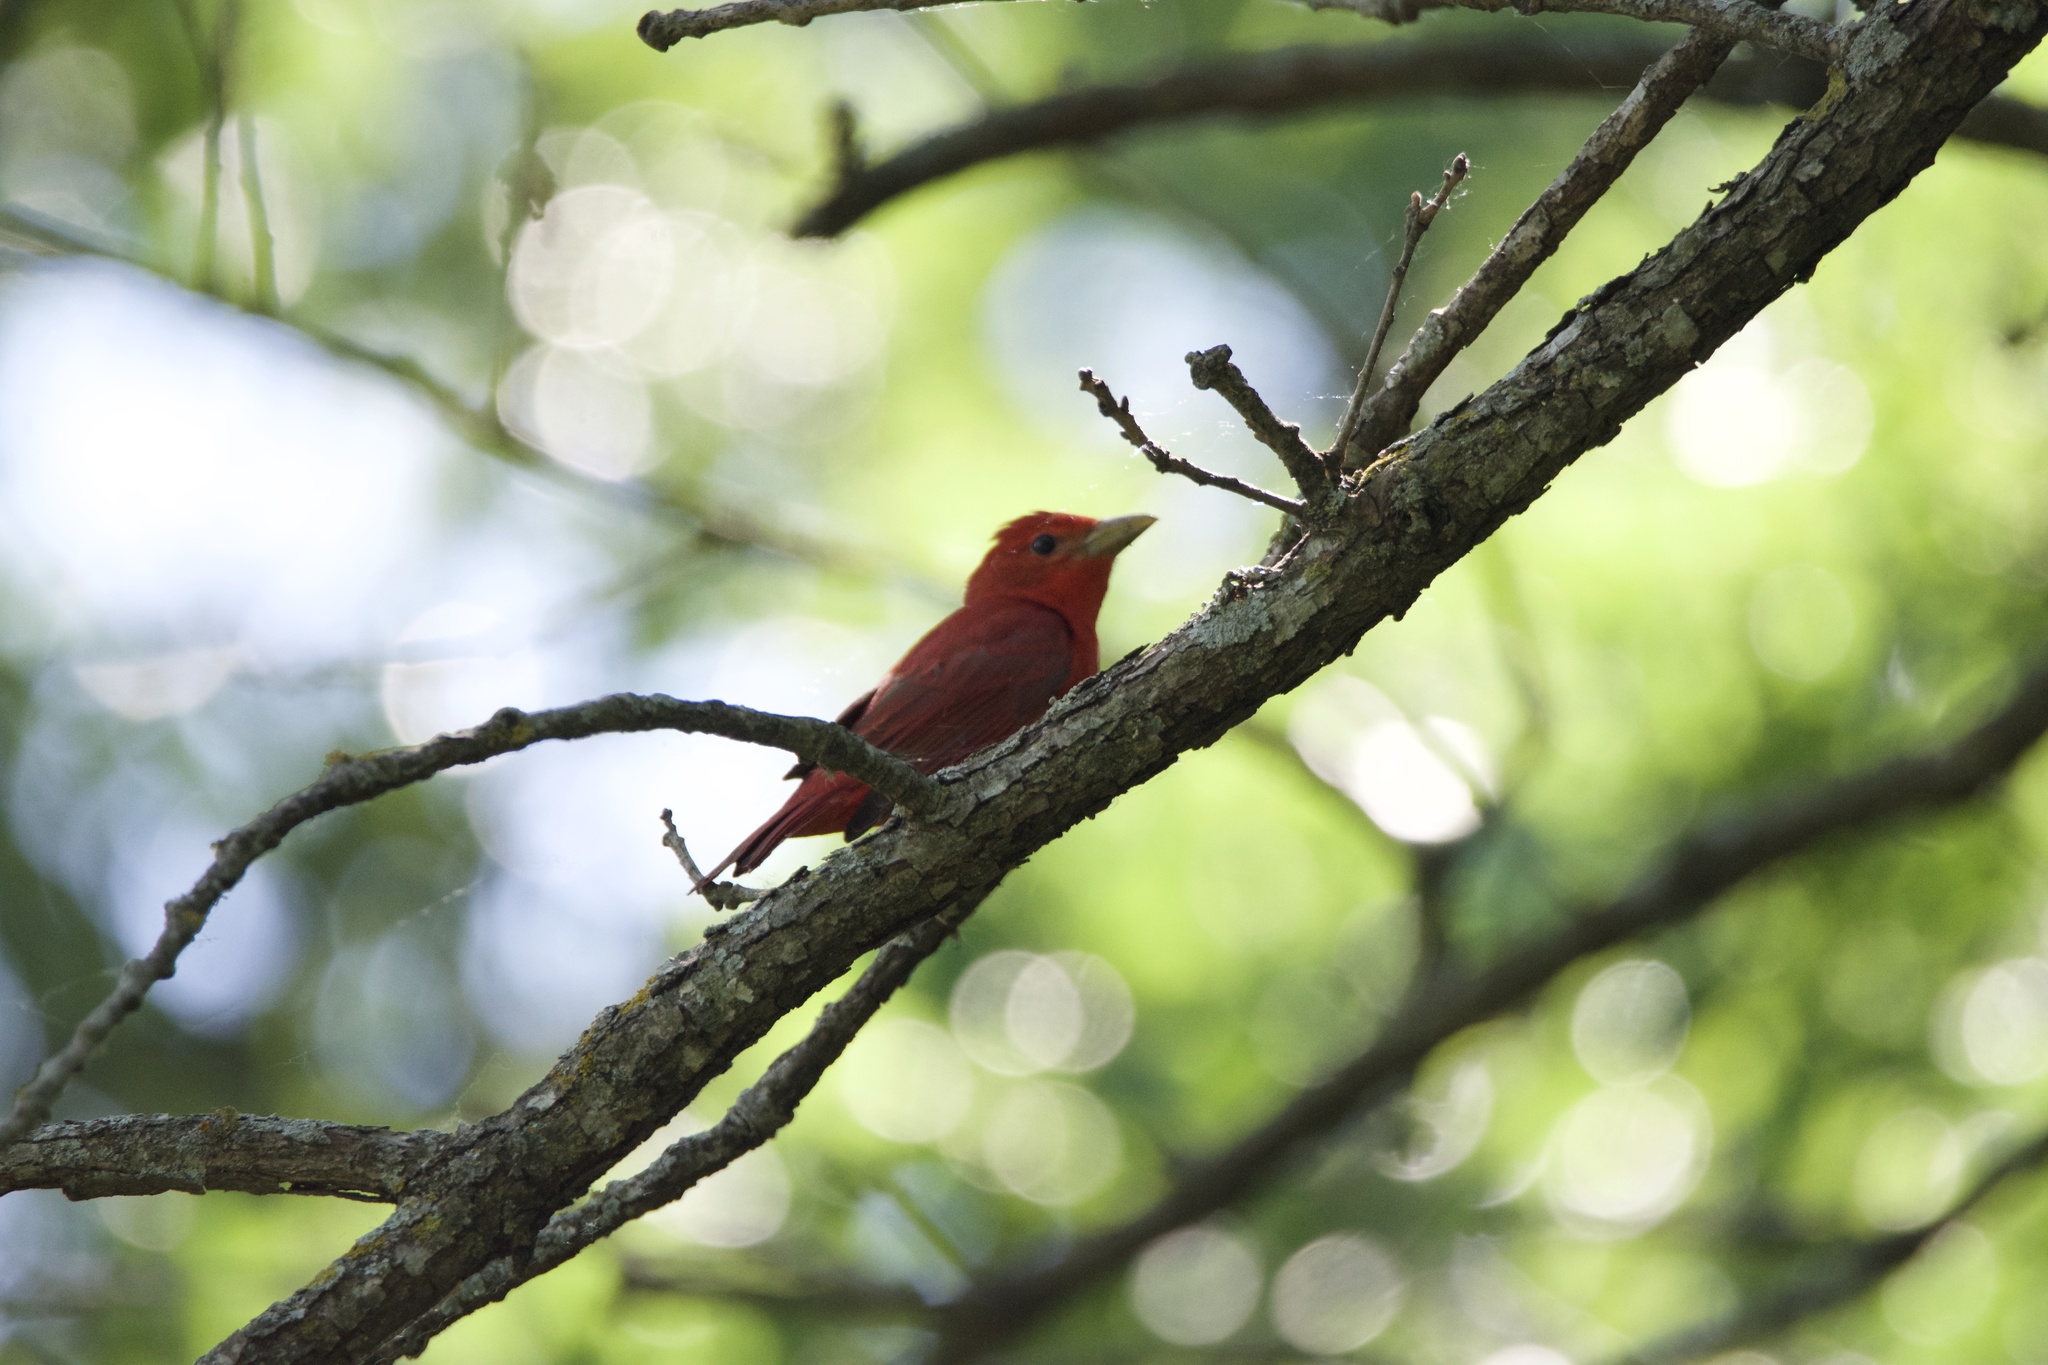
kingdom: Animalia
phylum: Chordata
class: Aves
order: Passeriformes
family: Cardinalidae
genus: Piranga
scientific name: Piranga rubra
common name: Summer tanager
